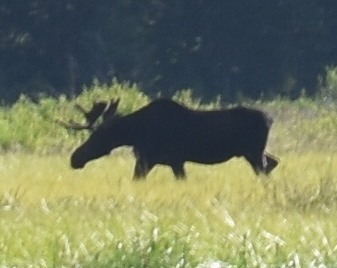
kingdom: Animalia
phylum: Chordata
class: Mammalia
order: Artiodactyla
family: Cervidae
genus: Alces
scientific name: Alces americanus
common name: Moose
